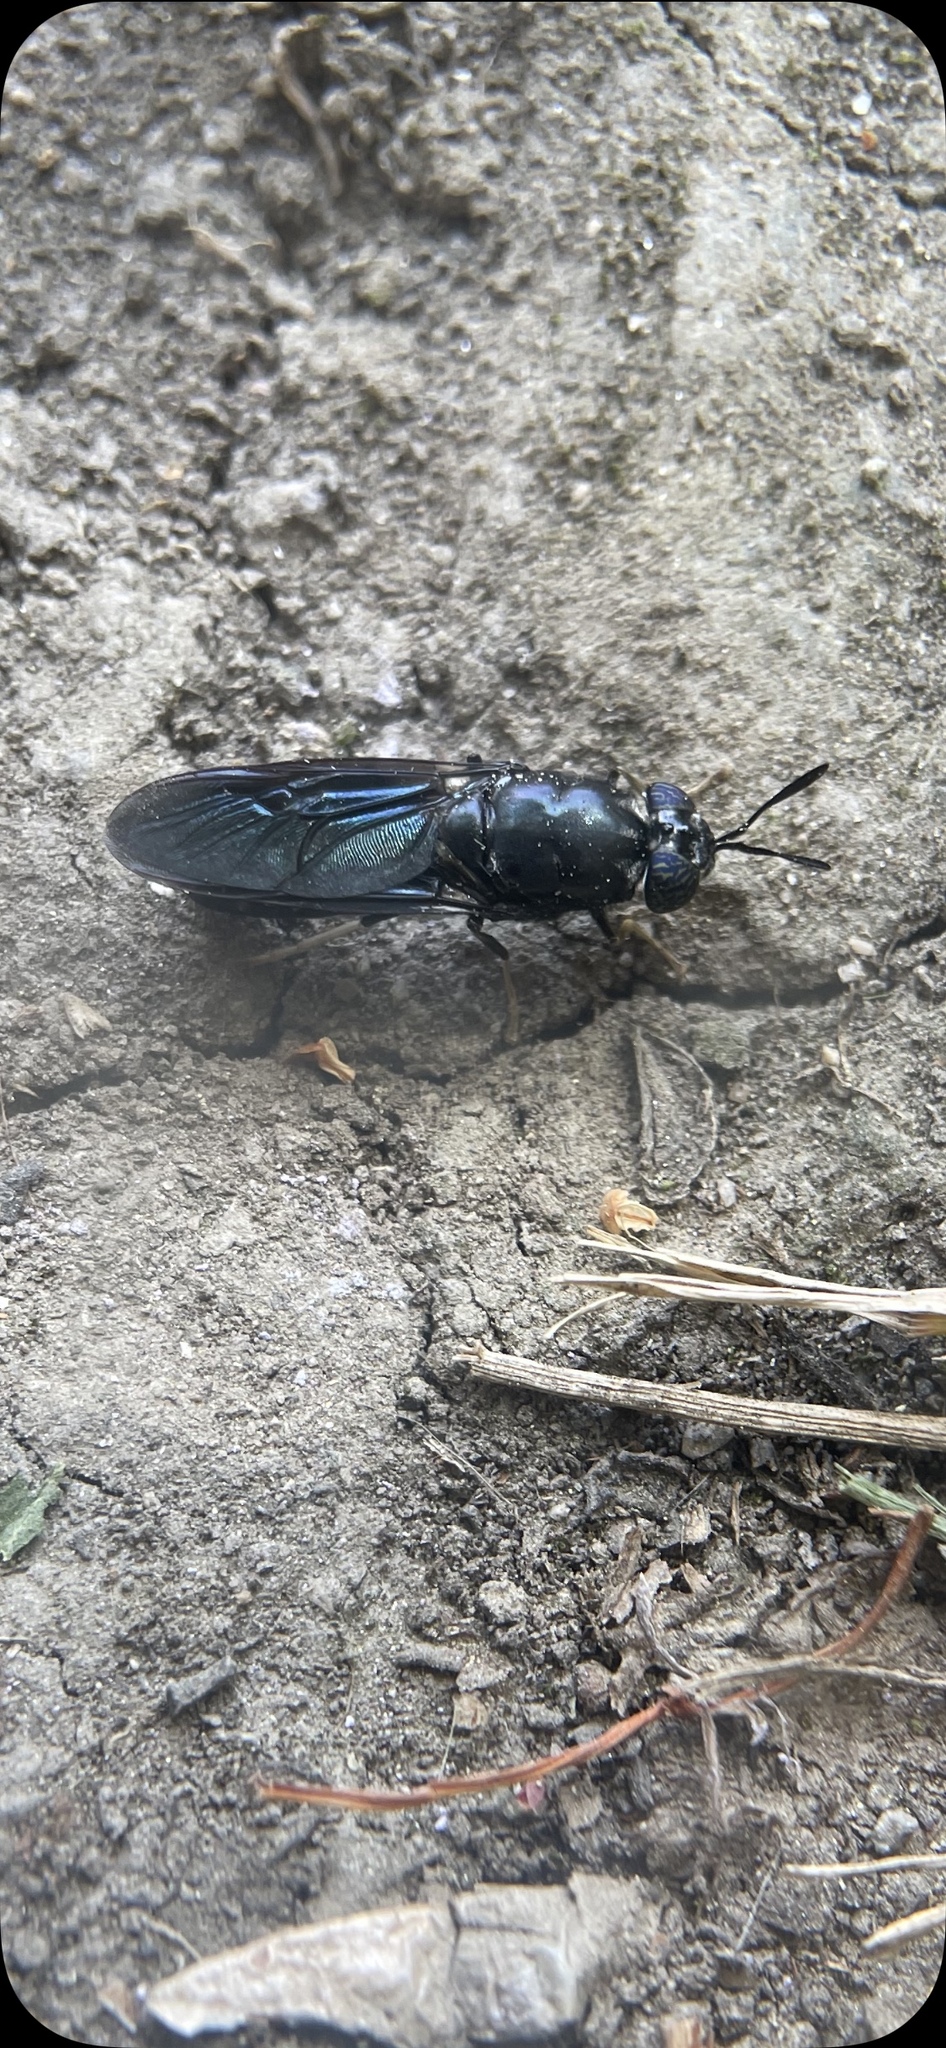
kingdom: Animalia
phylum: Arthropoda
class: Insecta
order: Diptera
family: Stratiomyidae
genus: Hermetia
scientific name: Hermetia illucens
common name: Black soldier fly
